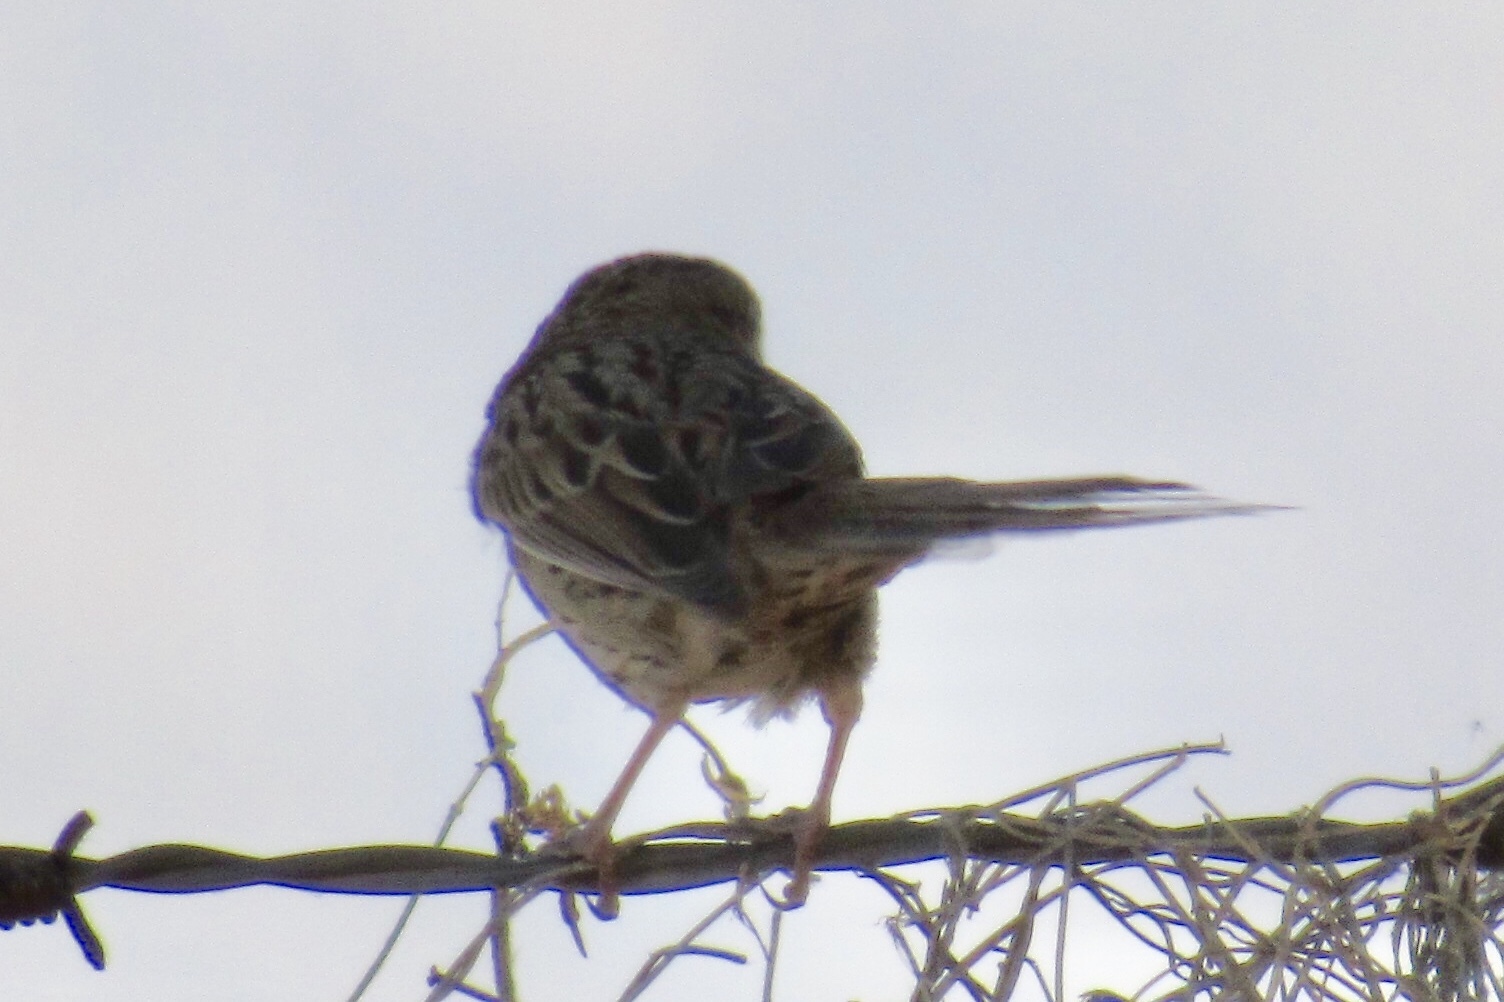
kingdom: Animalia
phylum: Chordata
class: Aves
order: Passeriformes
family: Passerellidae
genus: Melospiza
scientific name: Melospiza lincolnii
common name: Lincoln's sparrow
